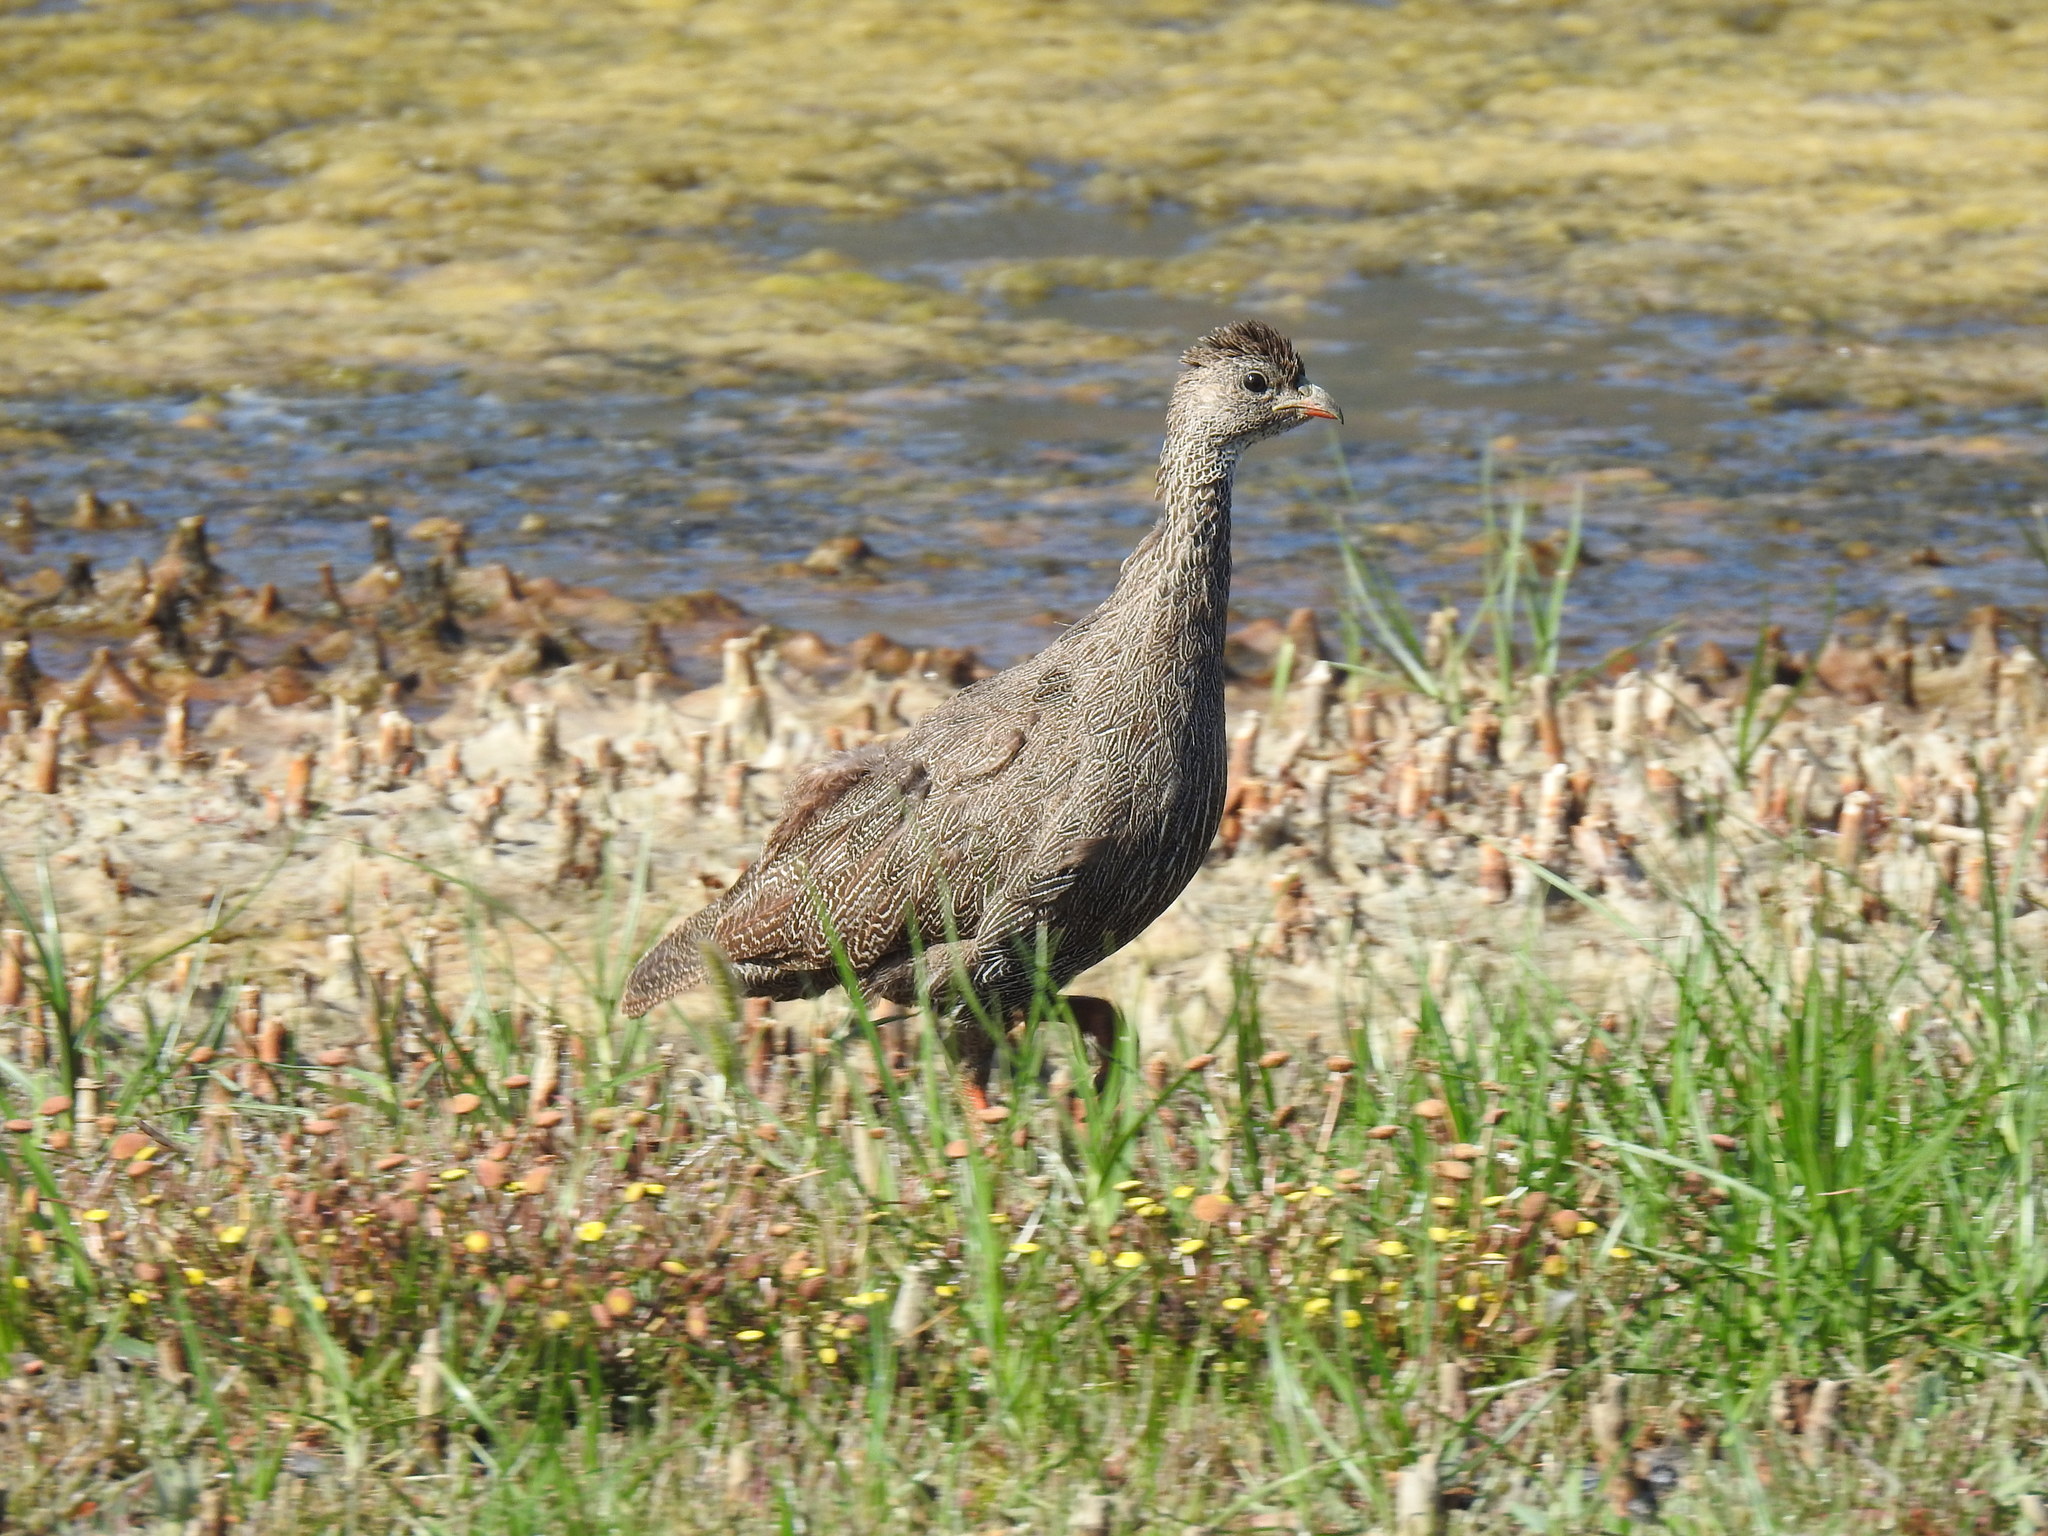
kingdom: Animalia
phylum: Chordata
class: Aves
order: Galliformes
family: Phasianidae
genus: Pternistis
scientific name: Pternistis capensis
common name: Cape spurfowl
